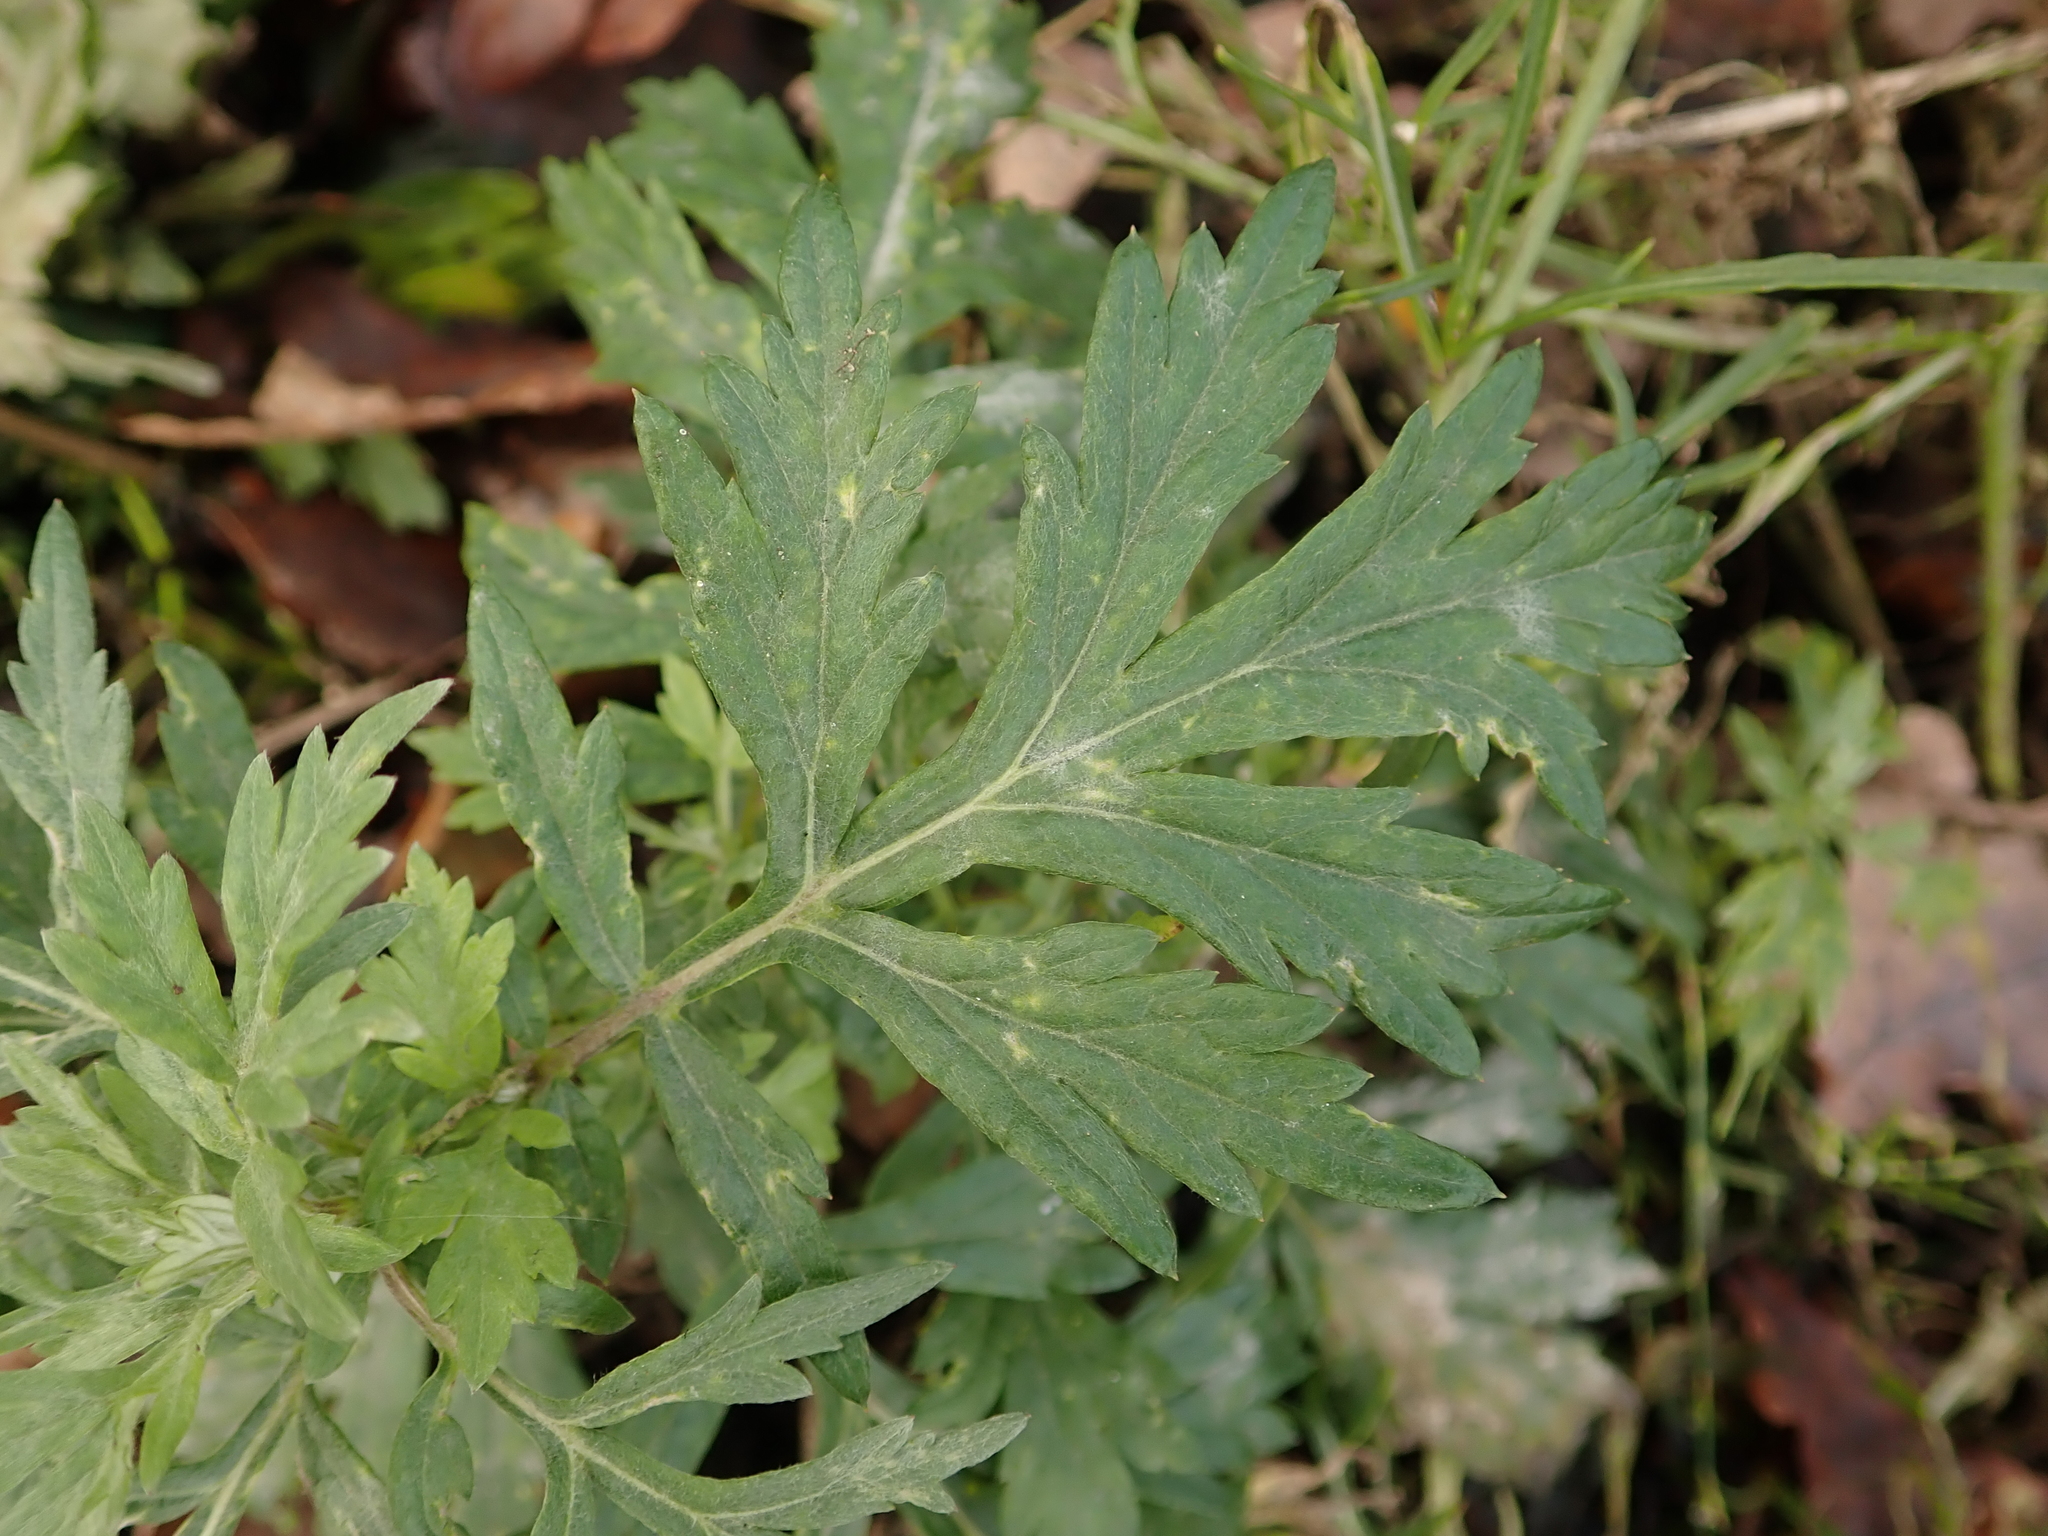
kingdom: Plantae
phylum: Tracheophyta
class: Magnoliopsida
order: Asterales
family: Asteraceae
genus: Artemisia
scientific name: Artemisia vulgaris
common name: Mugwort
